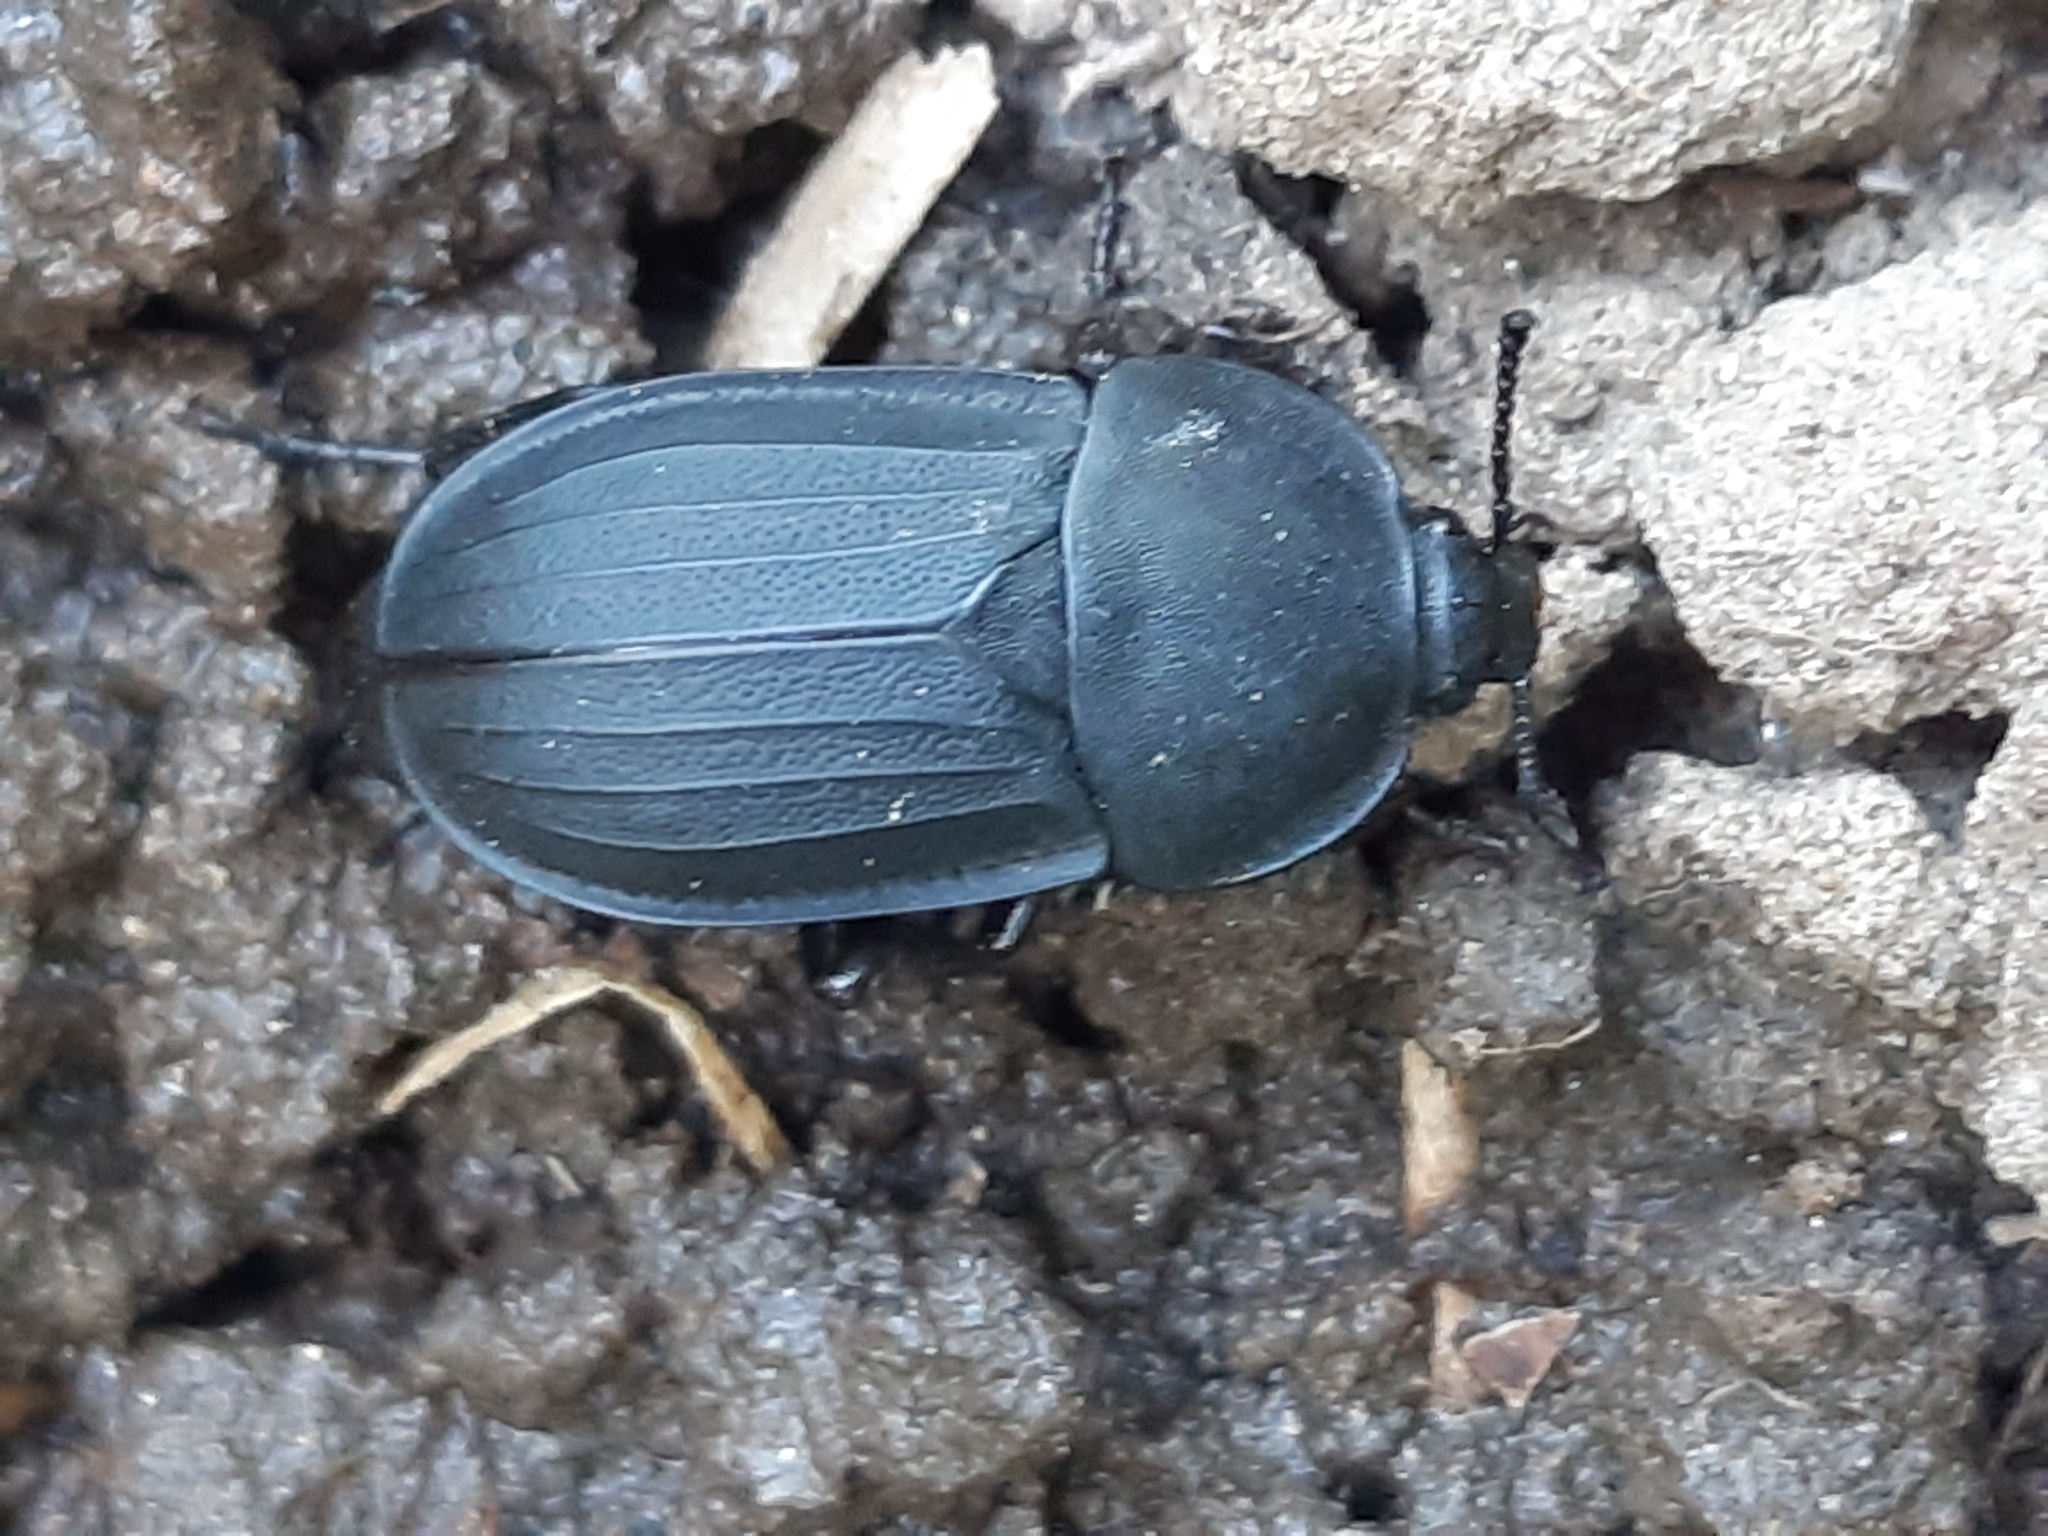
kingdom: Animalia
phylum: Arthropoda
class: Insecta
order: Coleoptera
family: Staphylinidae
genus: Silpha
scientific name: Silpha obscura
